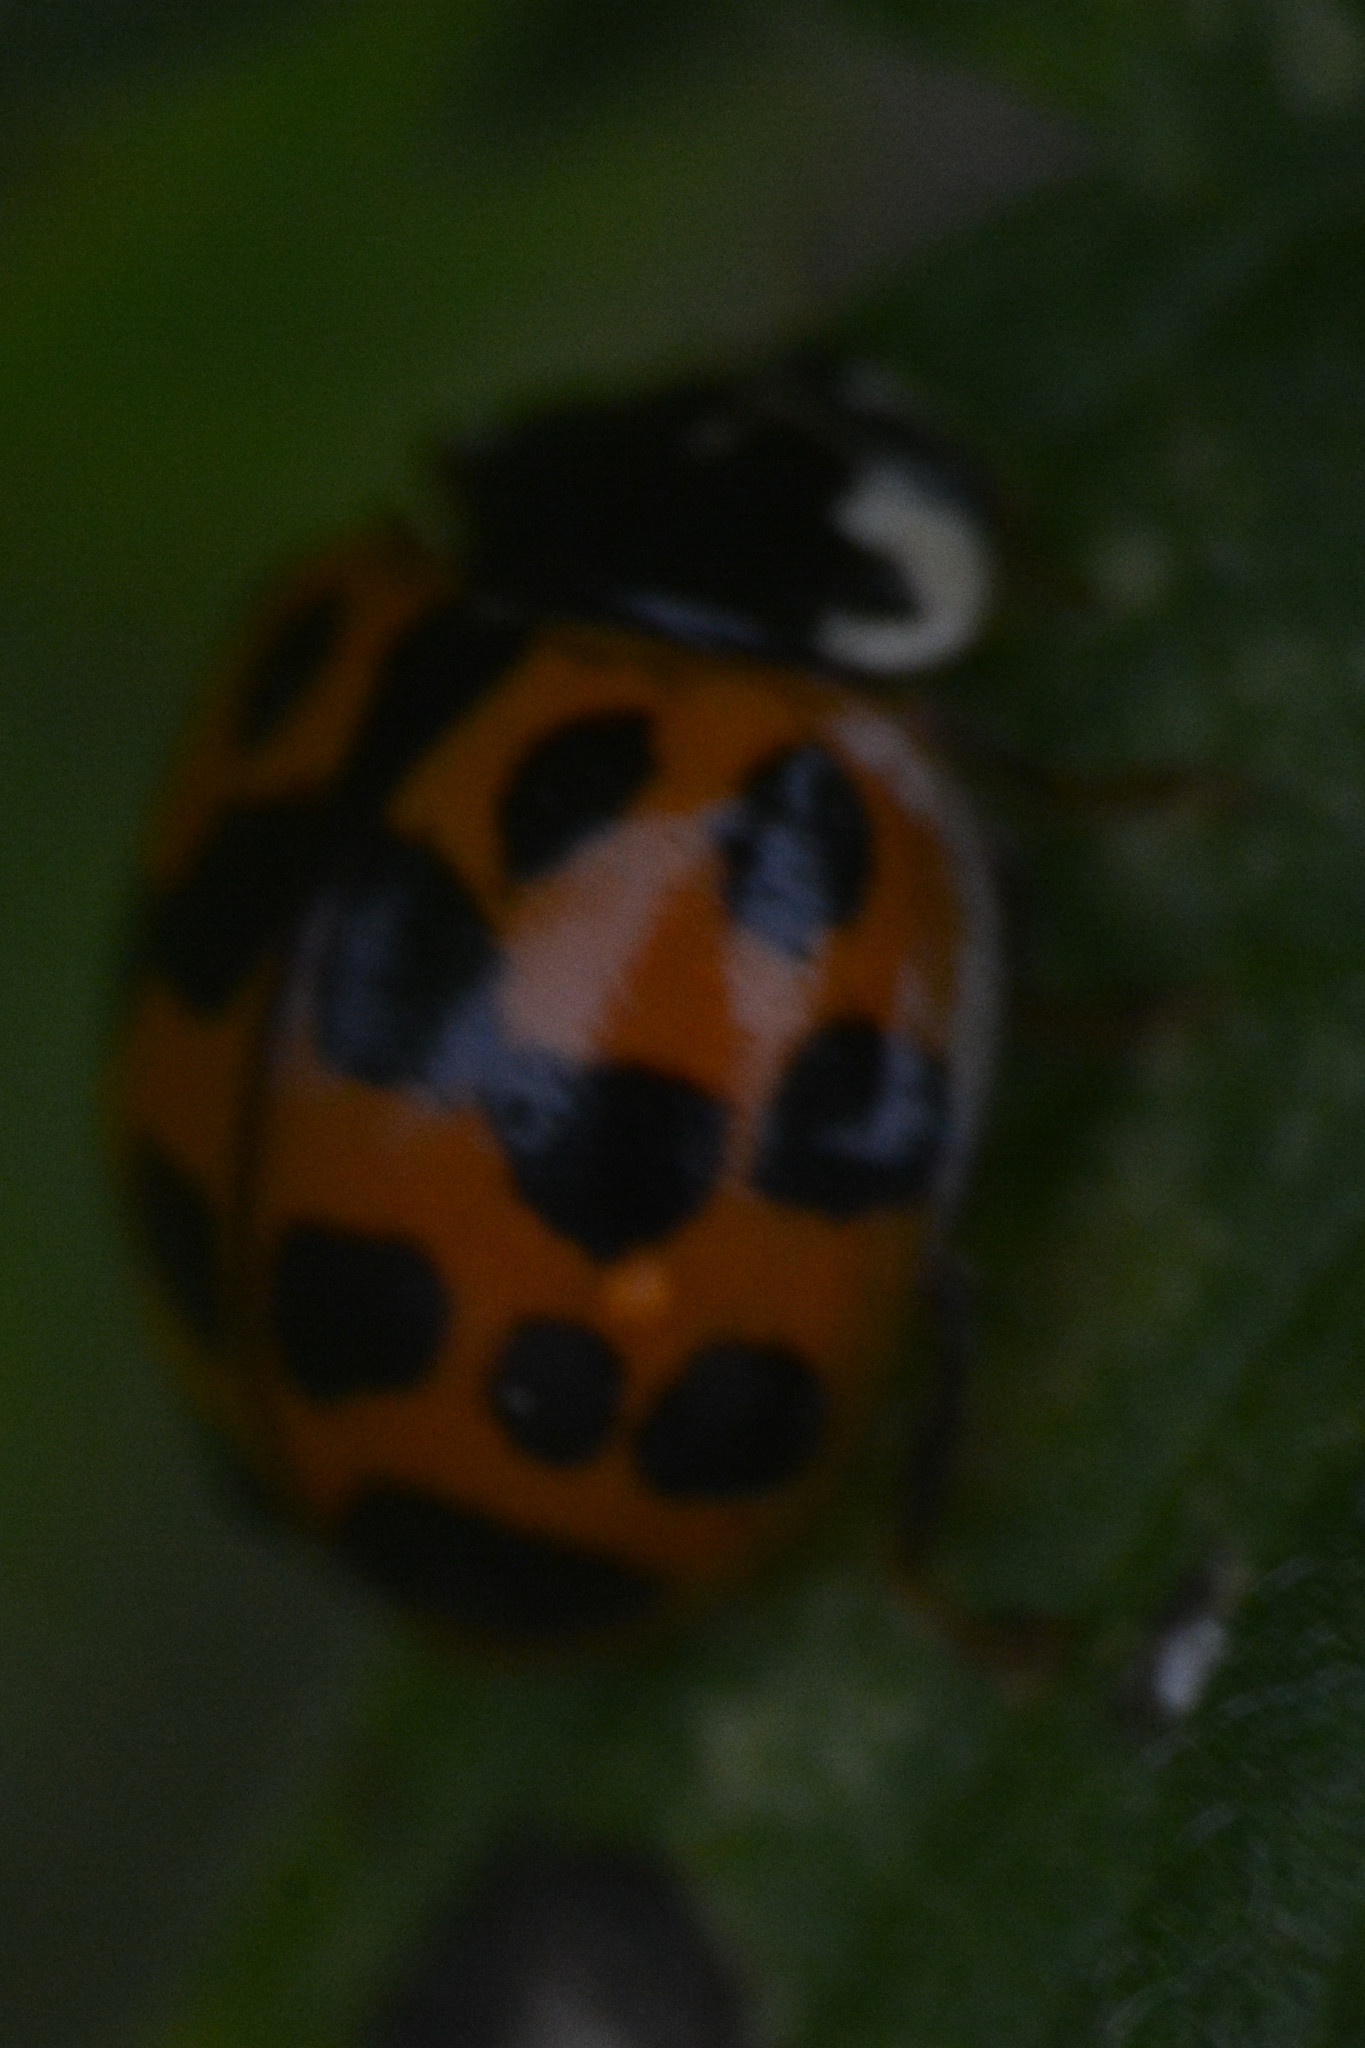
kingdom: Animalia
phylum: Arthropoda
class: Insecta
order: Coleoptera
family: Coccinellidae
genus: Harmonia
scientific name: Harmonia axyridis
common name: Harlequin ladybird
